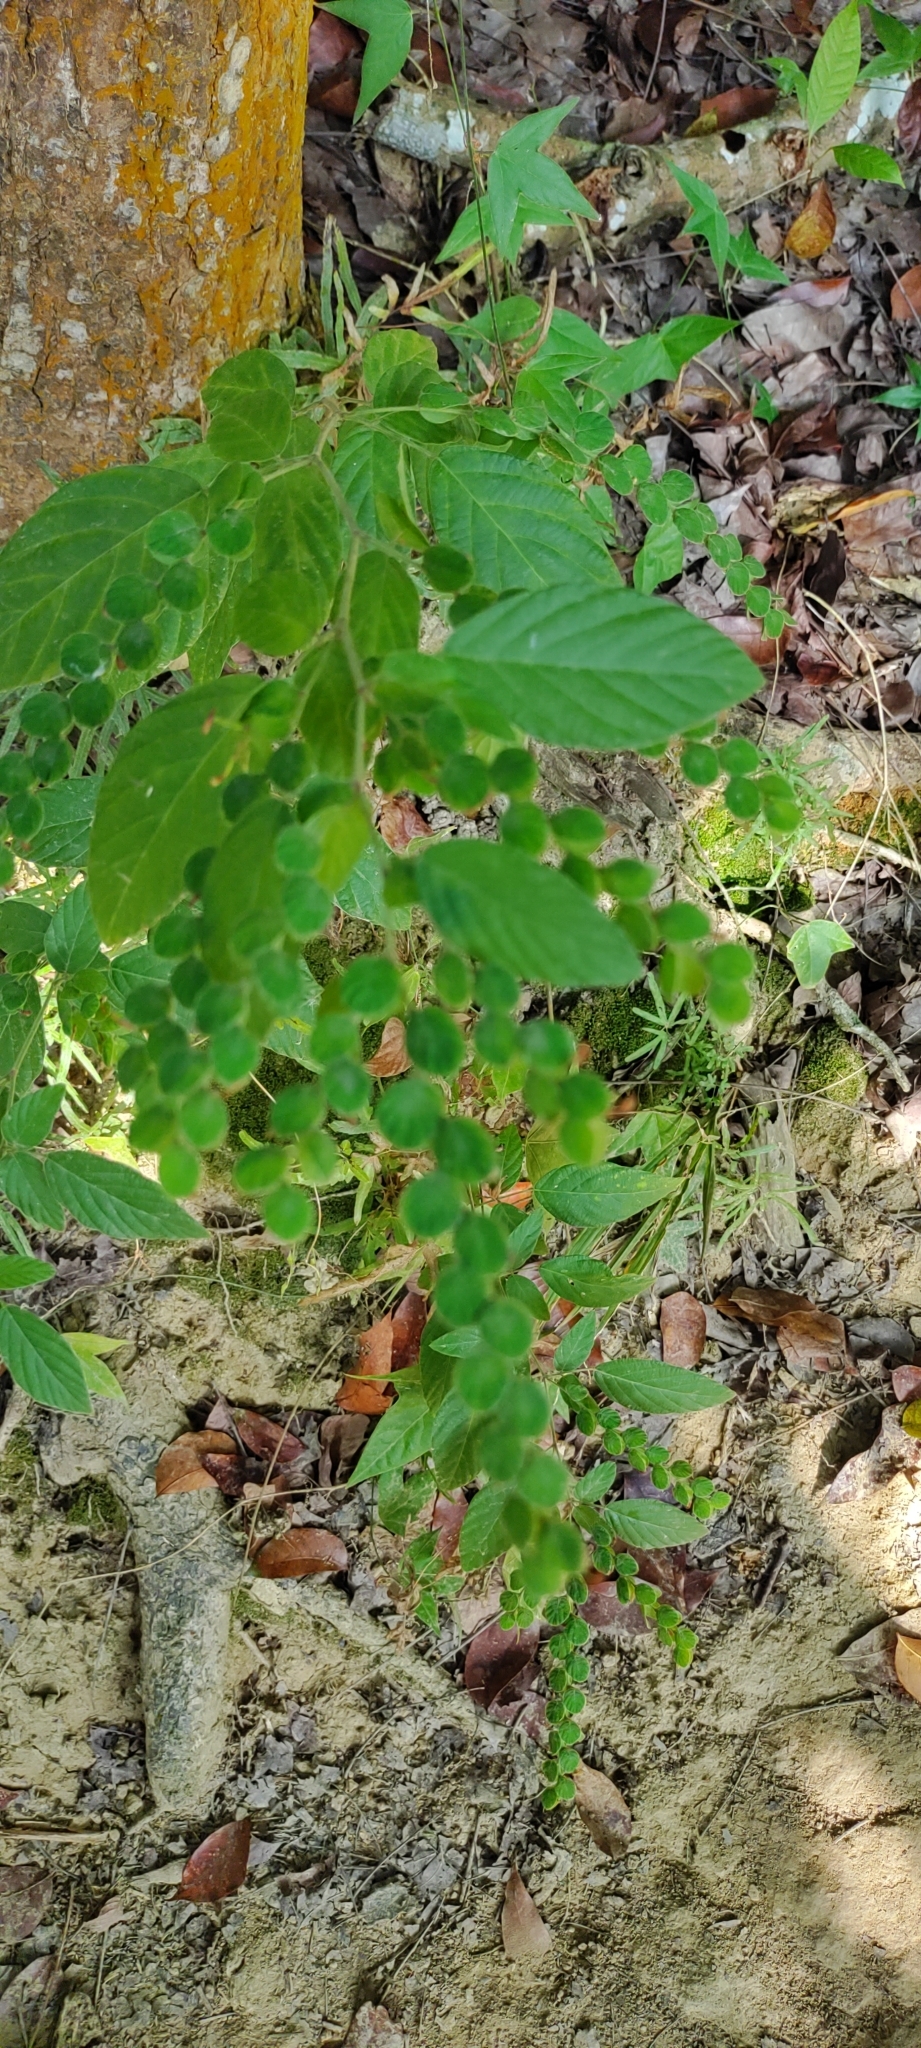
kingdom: Plantae
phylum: Tracheophyta
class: Magnoliopsida
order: Fabales
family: Fabaceae
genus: Phyllodium
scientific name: Phyllodium pulchellum
